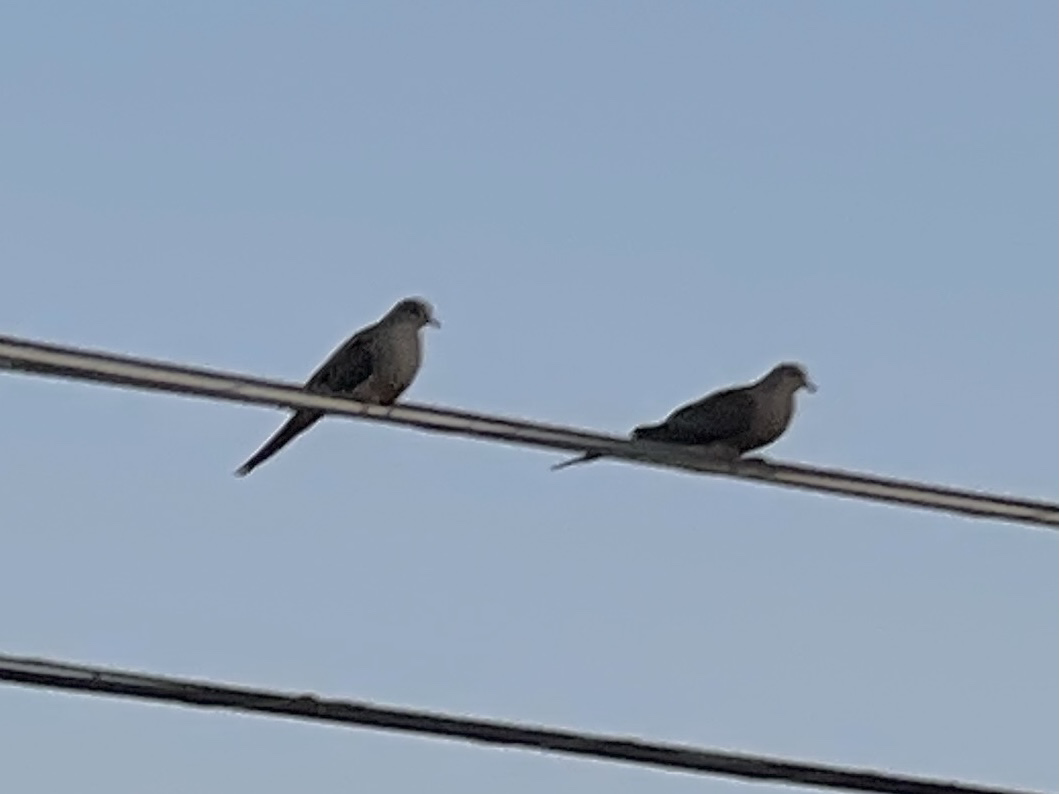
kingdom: Animalia
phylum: Chordata
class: Aves
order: Columbiformes
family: Columbidae
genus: Zenaida
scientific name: Zenaida macroura
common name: Mourning dove
